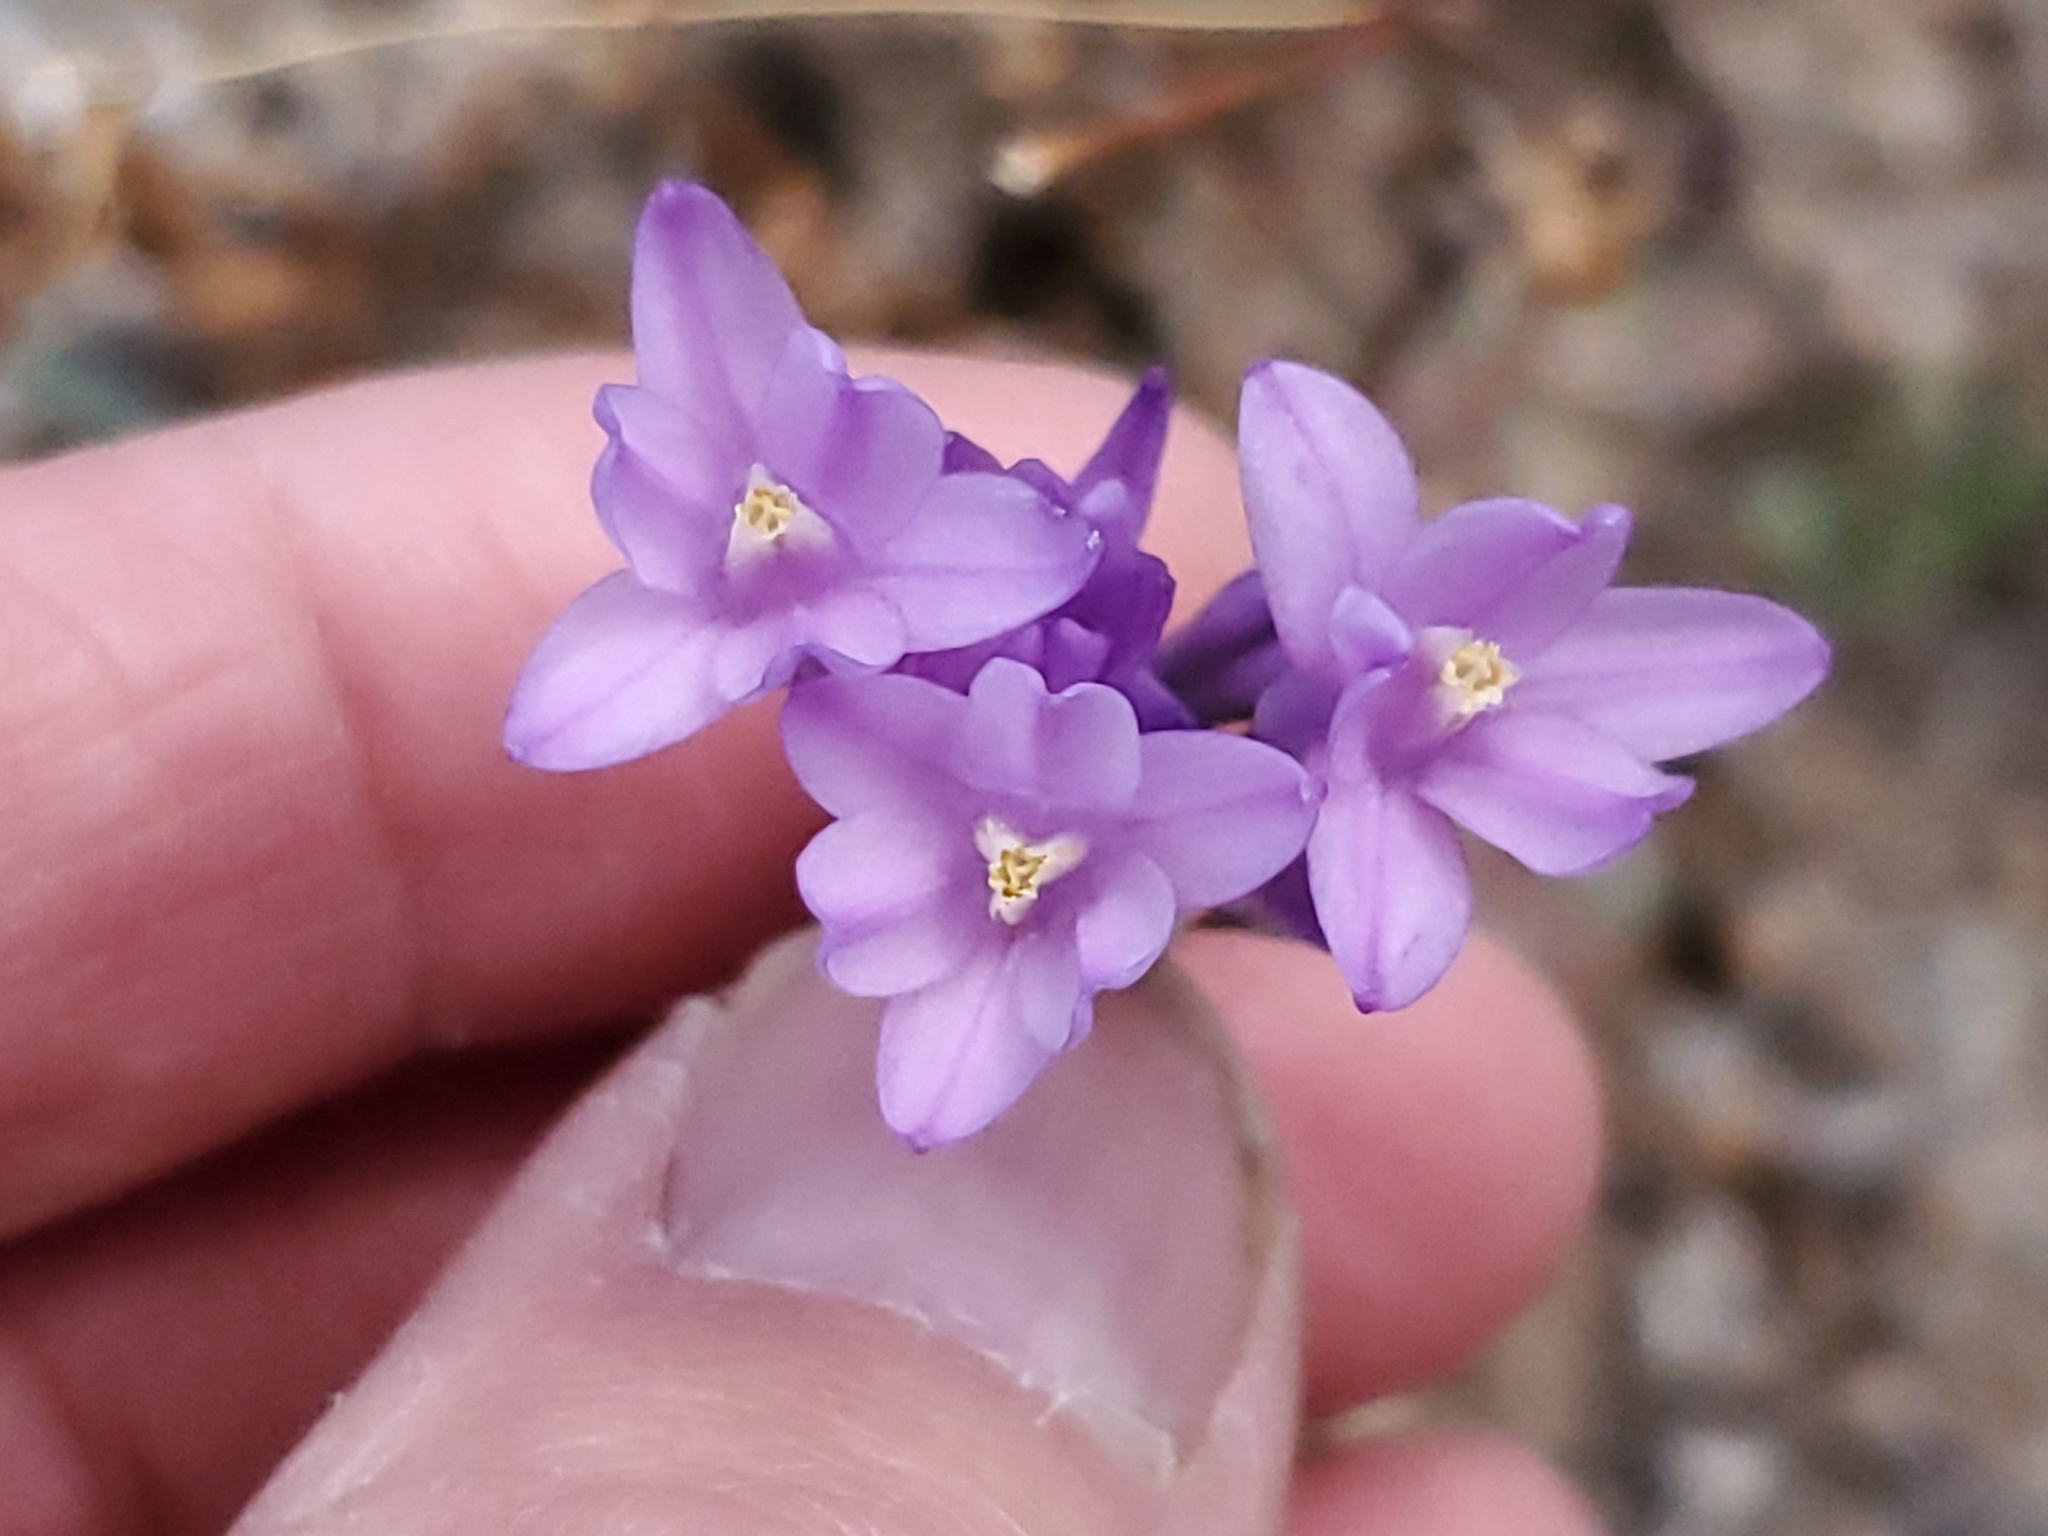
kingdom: Plantae
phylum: Tracheophyta
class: Liliopsida
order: Asparagales
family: Asparagaceae
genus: Dipterostemon
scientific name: Dipterostemon capitatus
